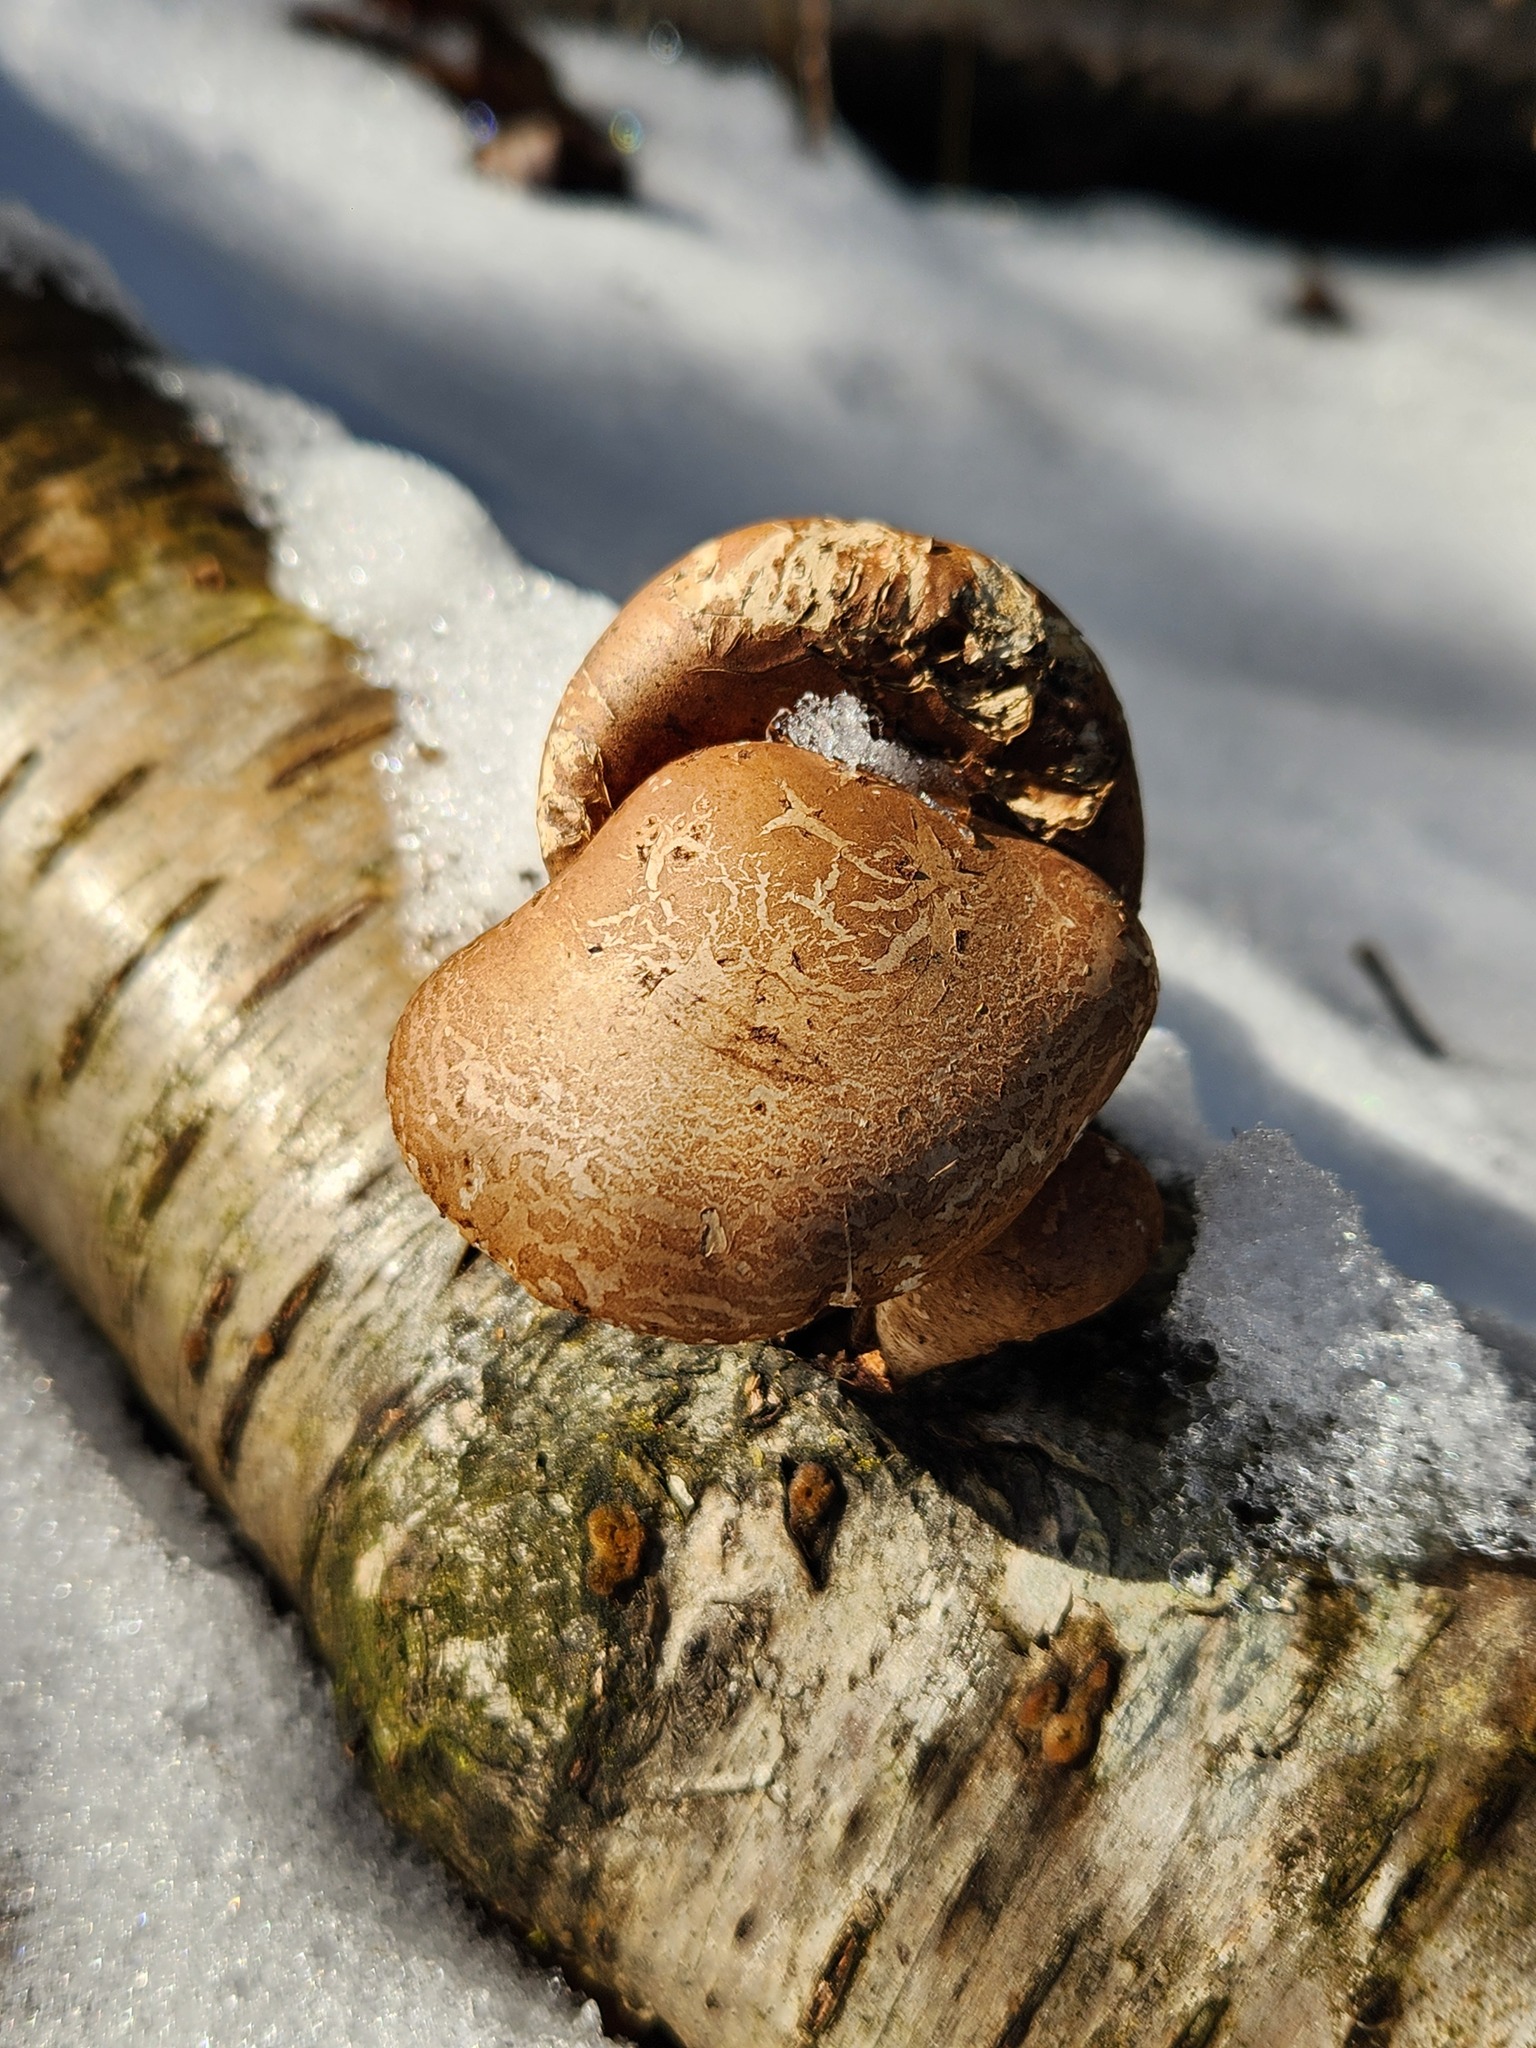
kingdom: Fungi
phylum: Basidiomycota
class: Agaricomycetes
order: Polyporales
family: Fomitopsidaceae
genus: Fomitopsis
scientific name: Fomitopsis betulina
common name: Birch polypore
